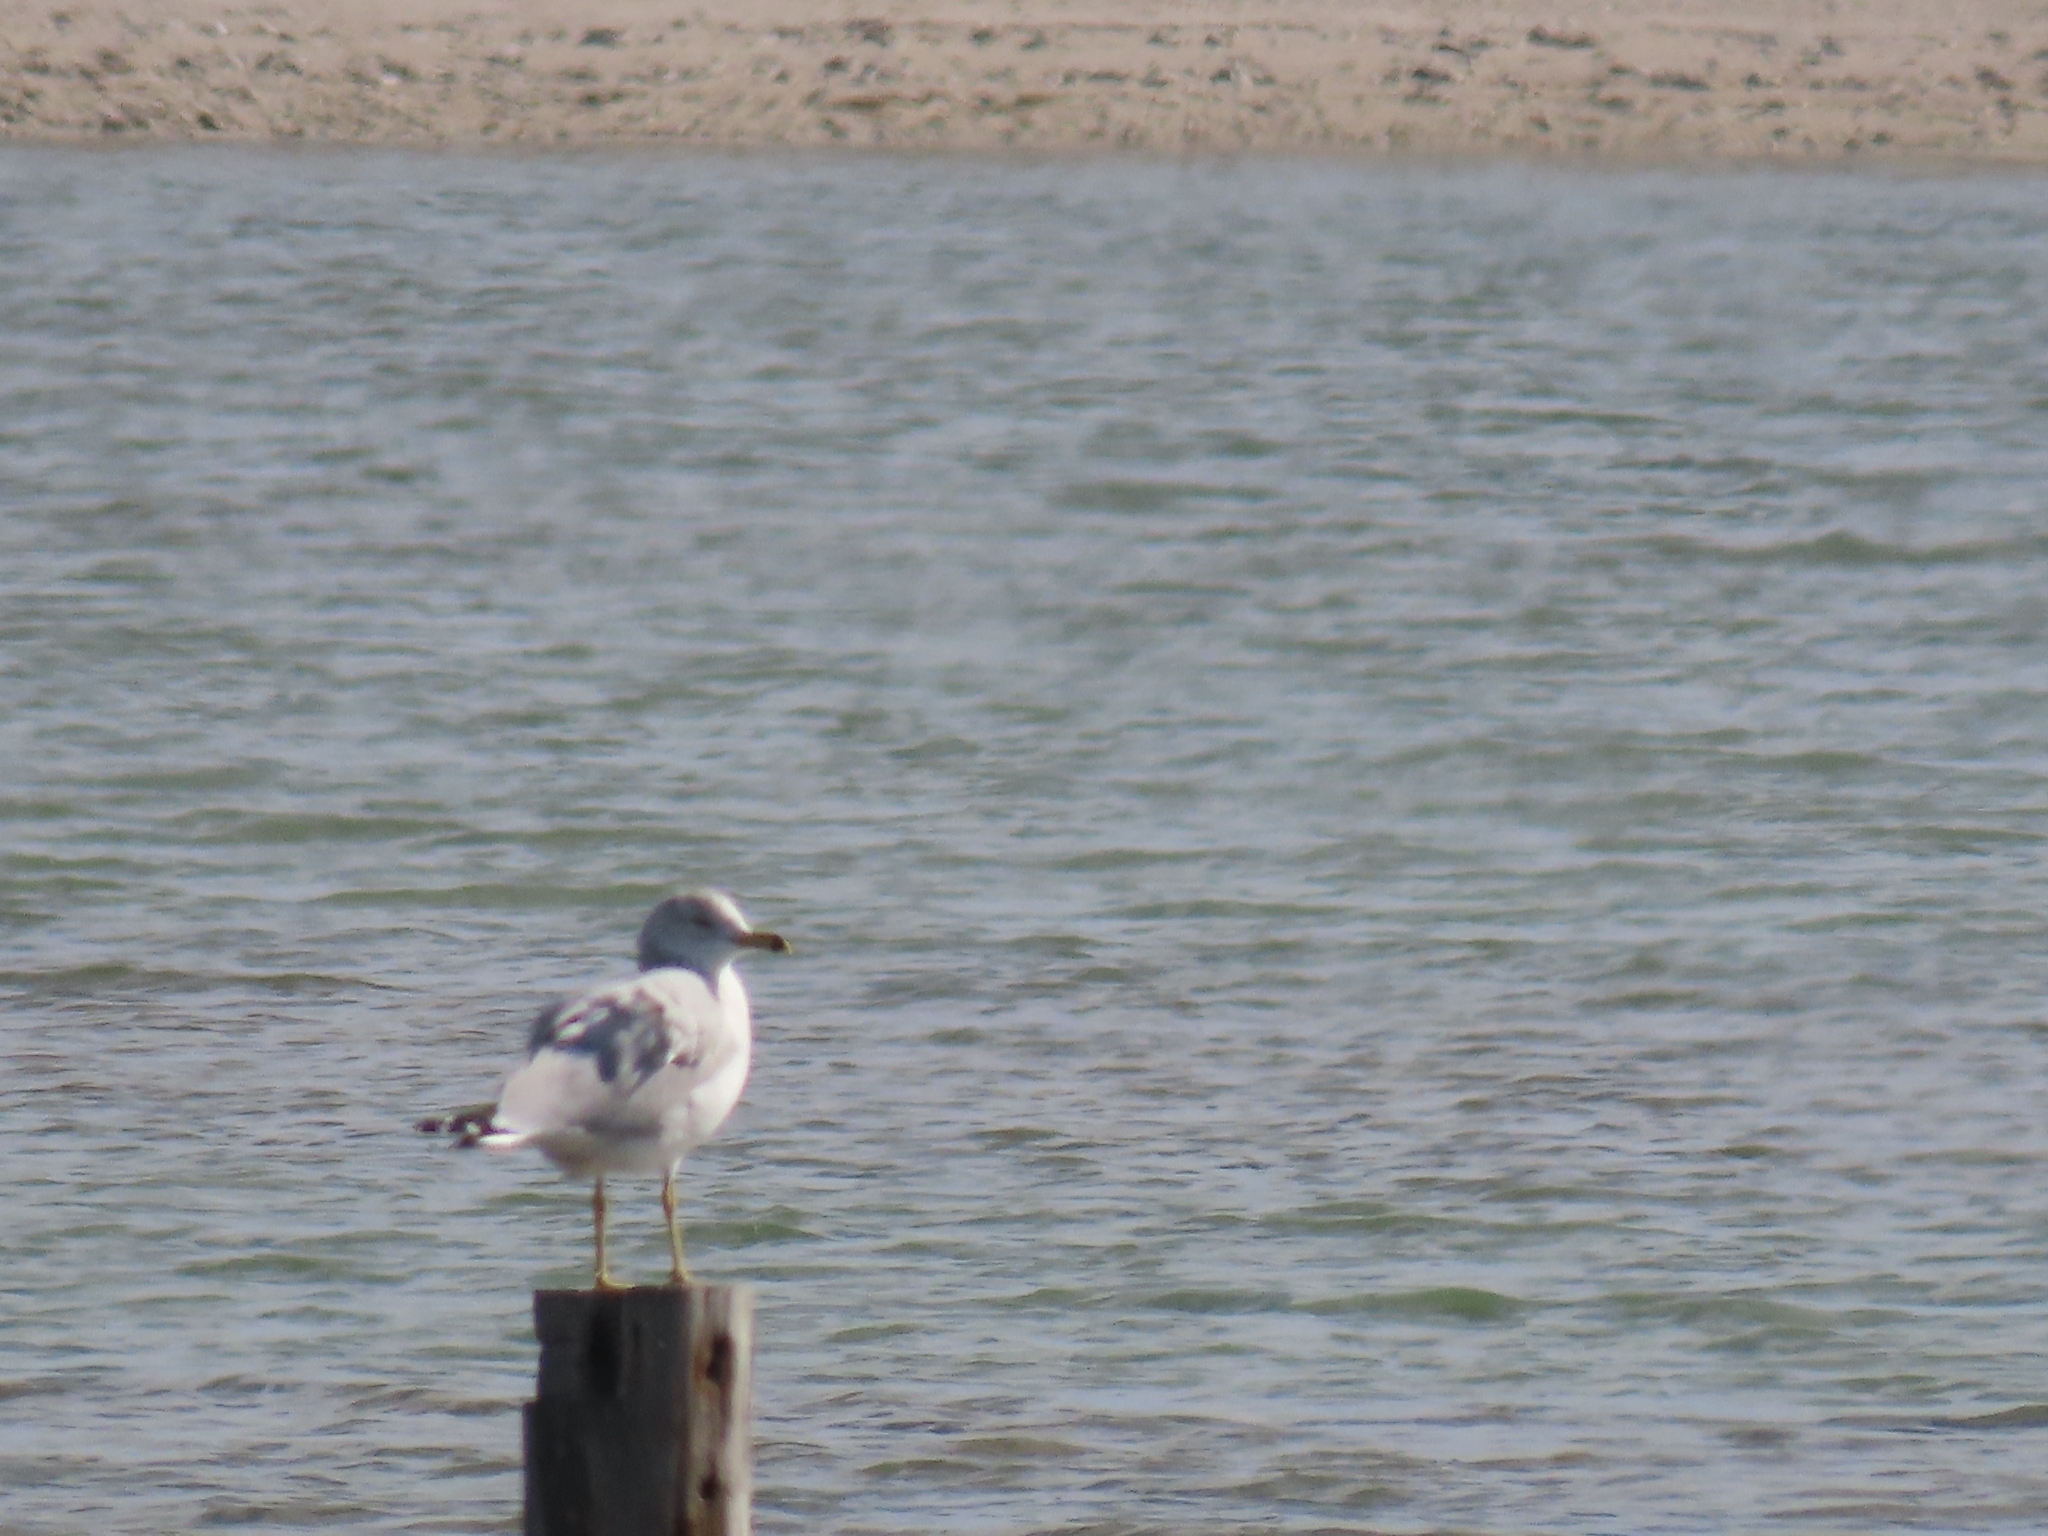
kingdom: Animalia
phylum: Chordata
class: Aves
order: Charadriiformes
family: Laridae
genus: Larus
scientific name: Larus delawarensis
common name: Ring-billed gull
